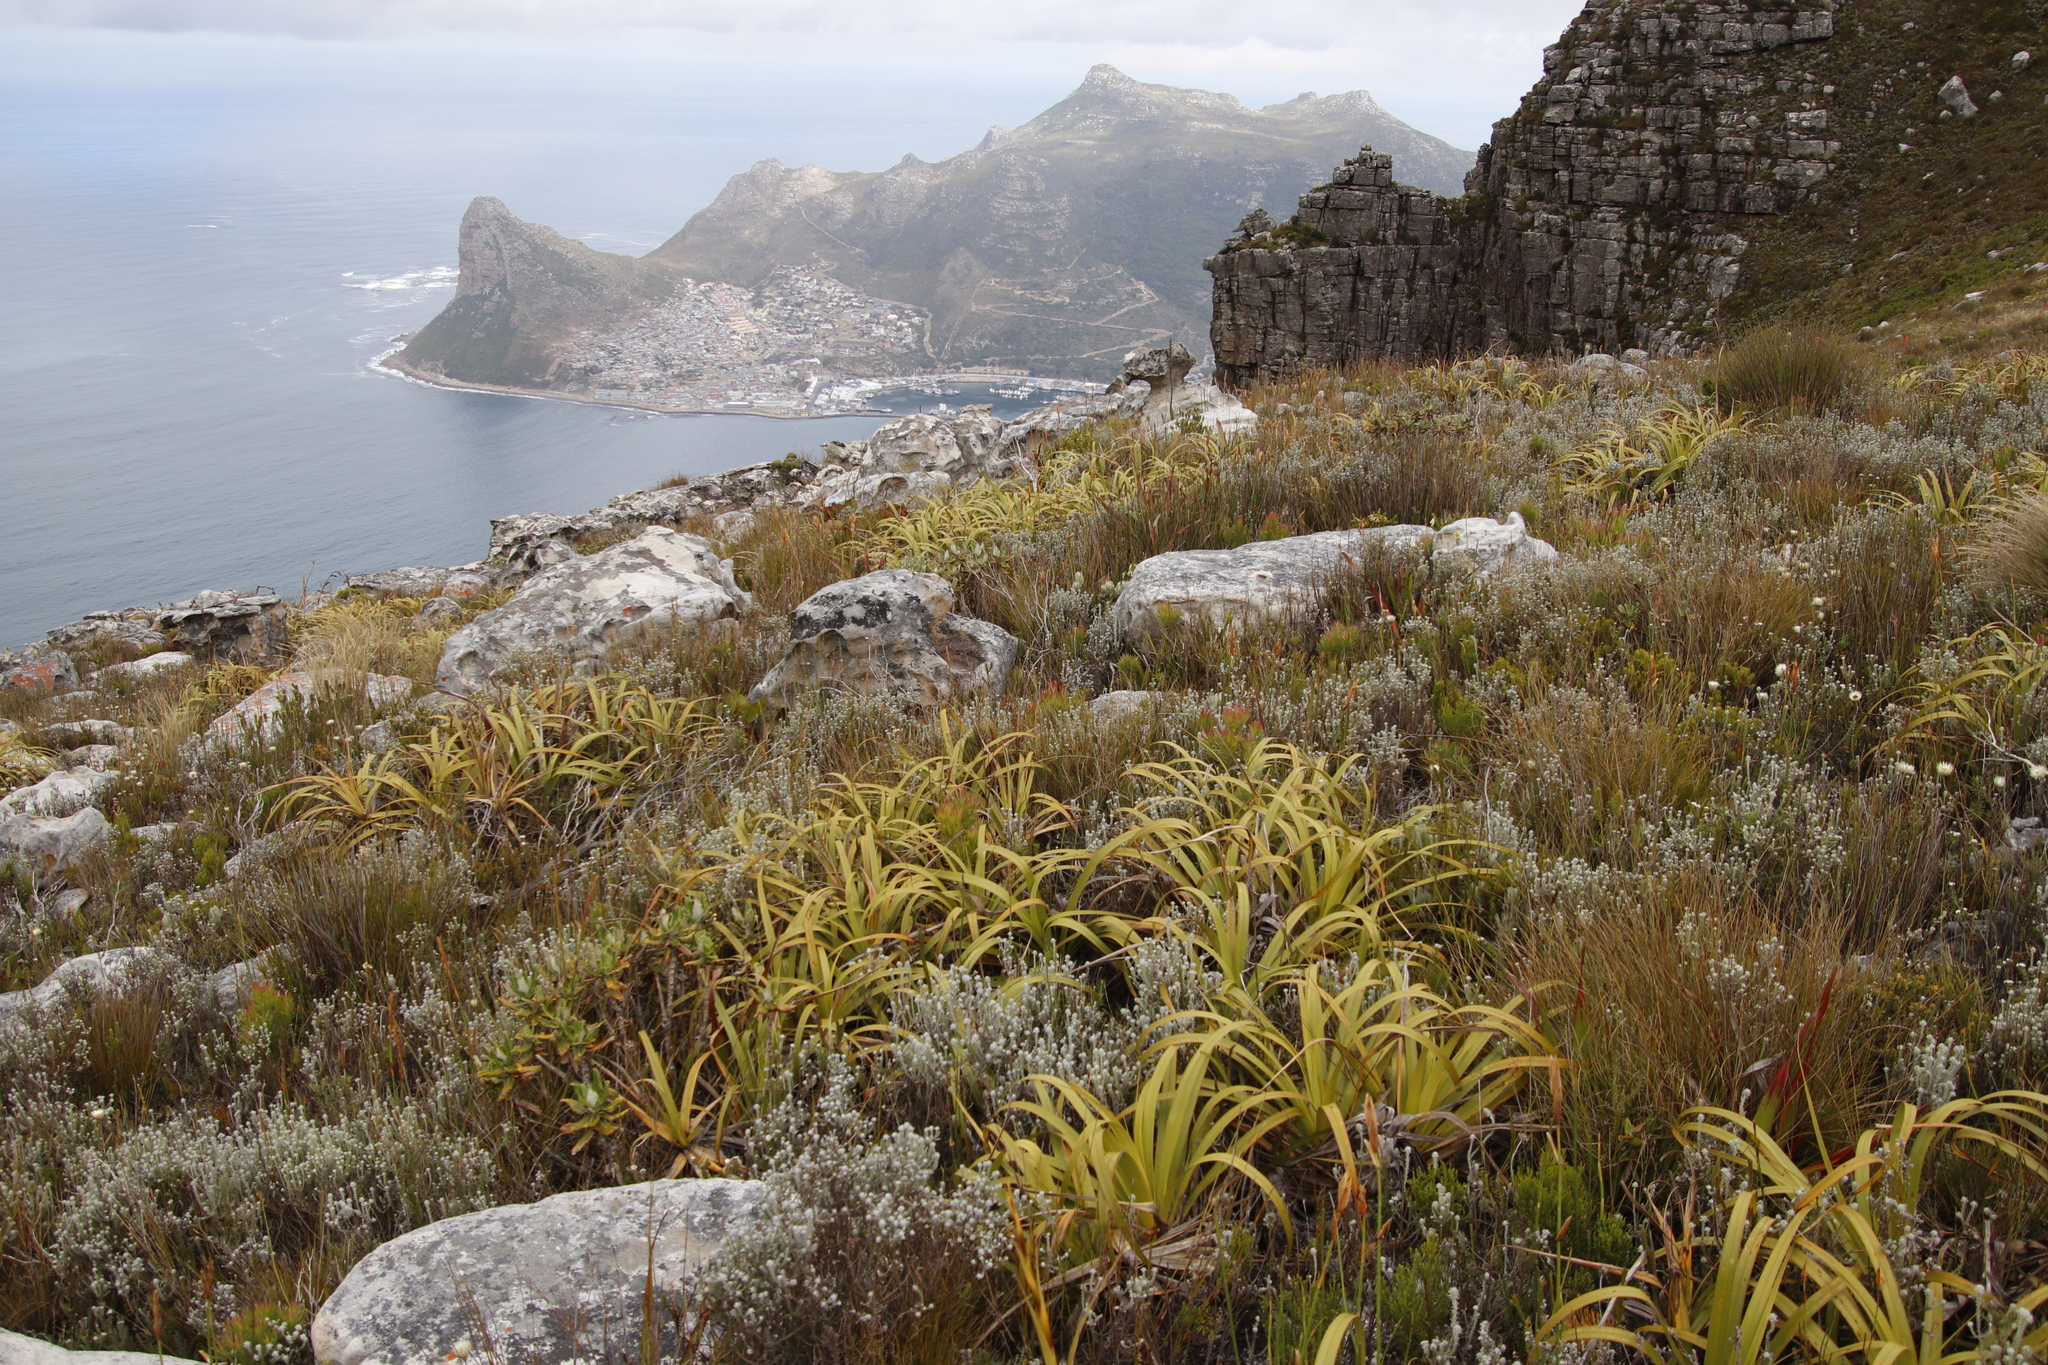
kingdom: Plantae
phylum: Tracheophyta
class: Liliopsida
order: Poales
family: Cyperaceae
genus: Tetraria
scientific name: Tetraria thermalis
